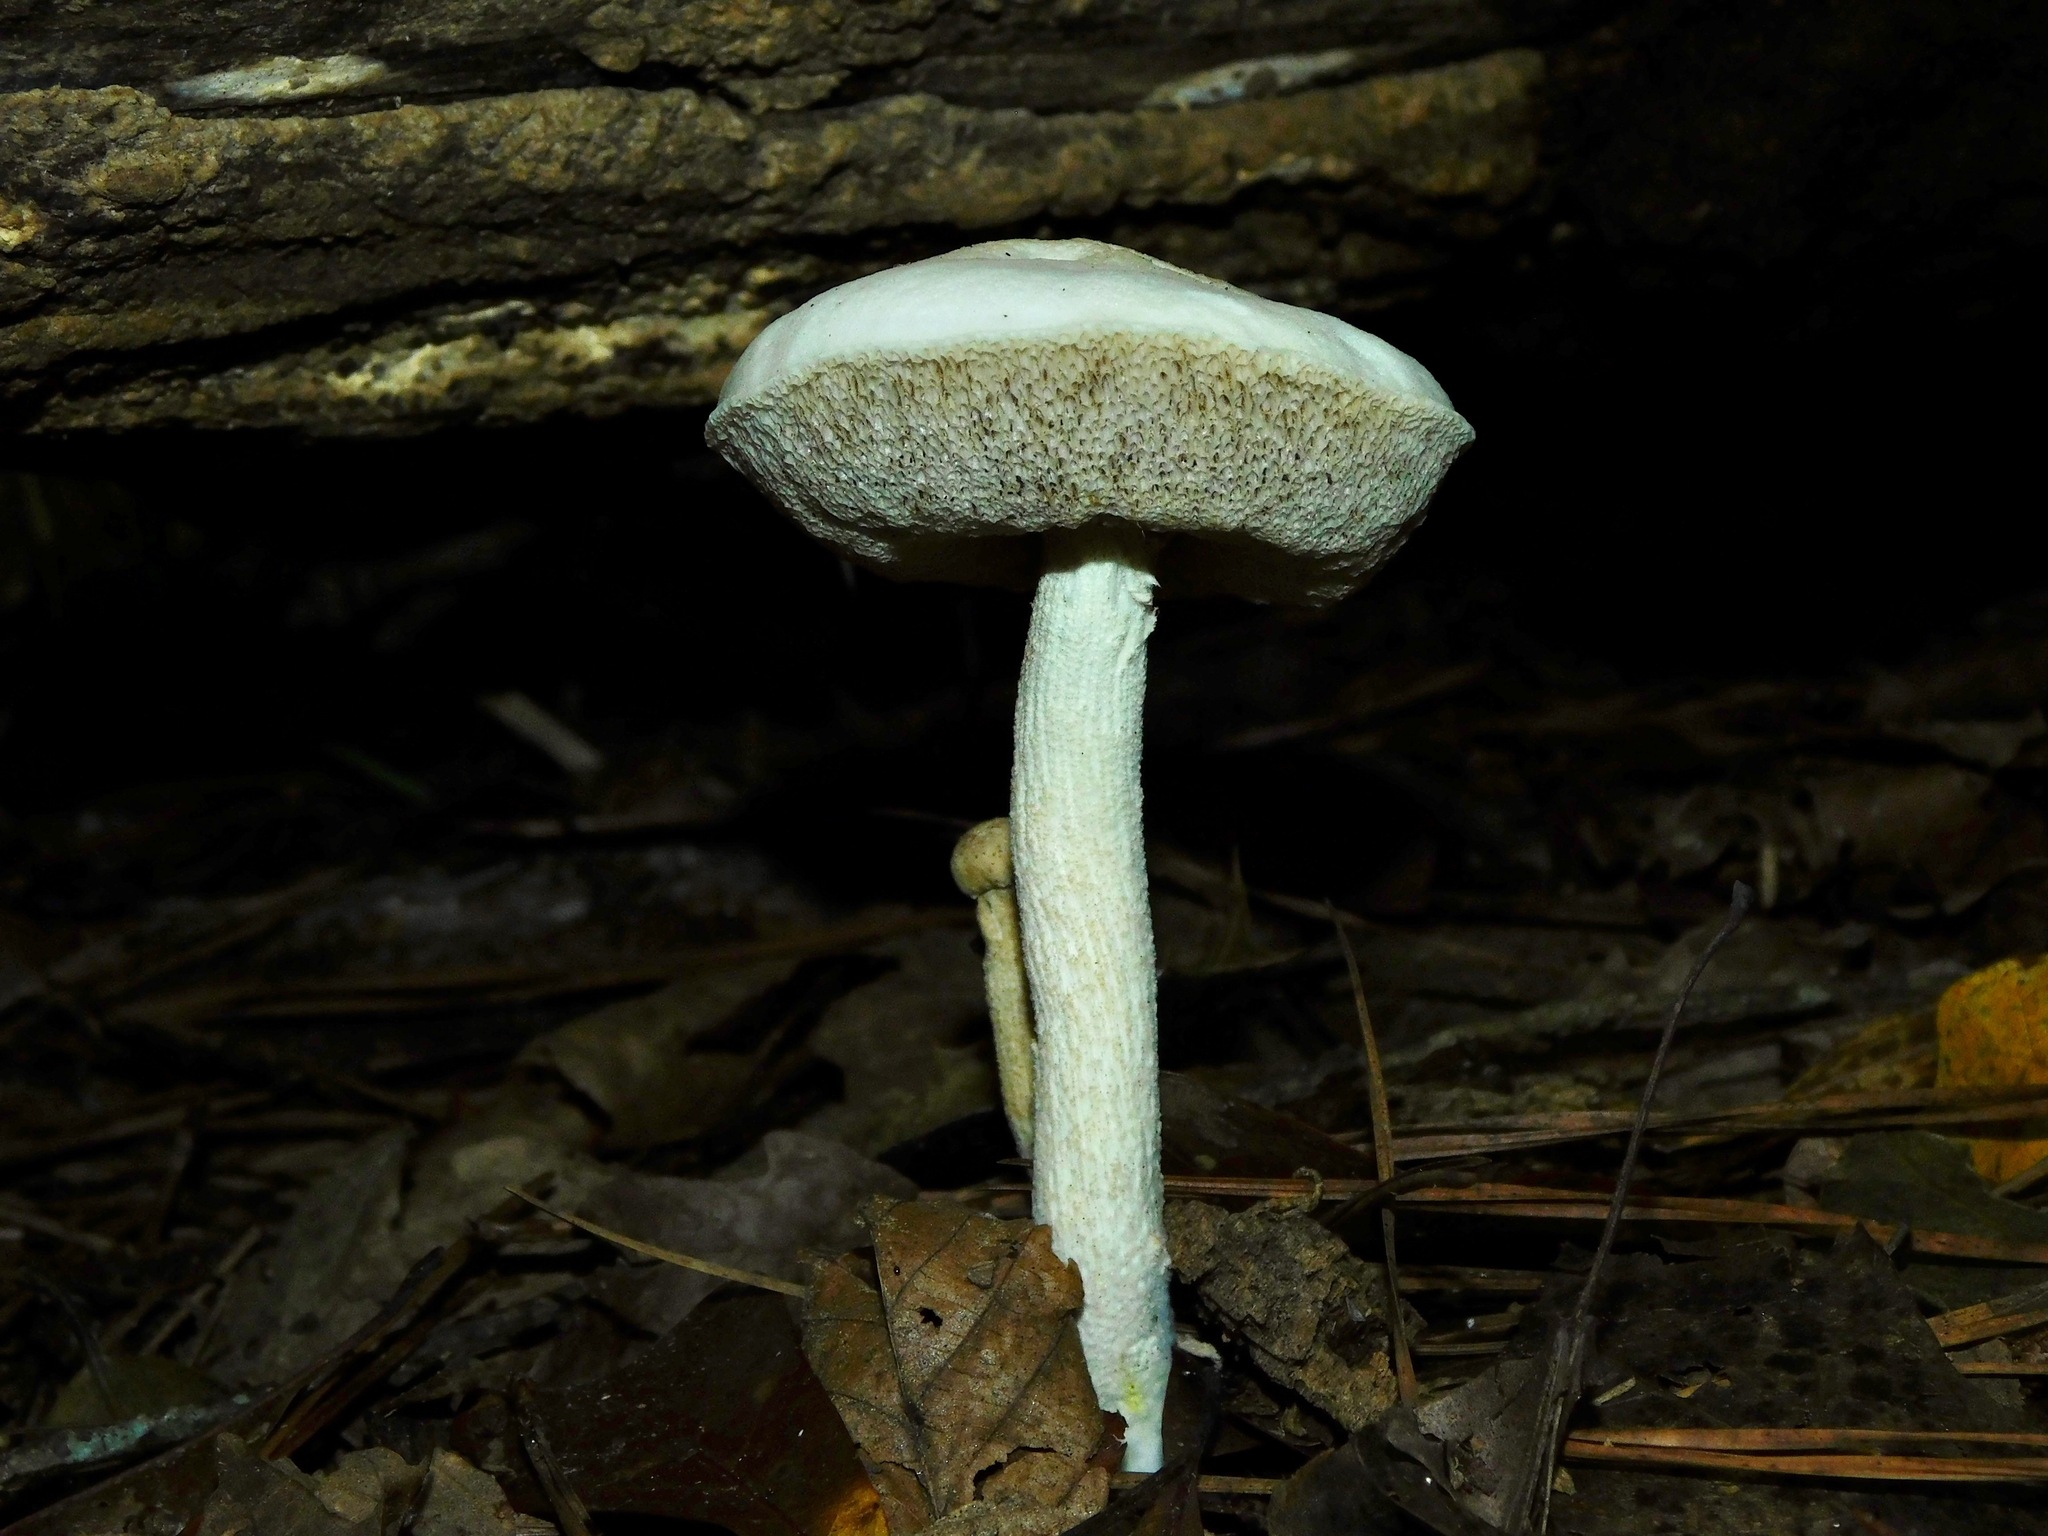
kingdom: Fungi
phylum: Basidiomycota
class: Agaricomycetes
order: Boletales
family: Boletaceae
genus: Leccinellum
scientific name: Leccinellum albellum
